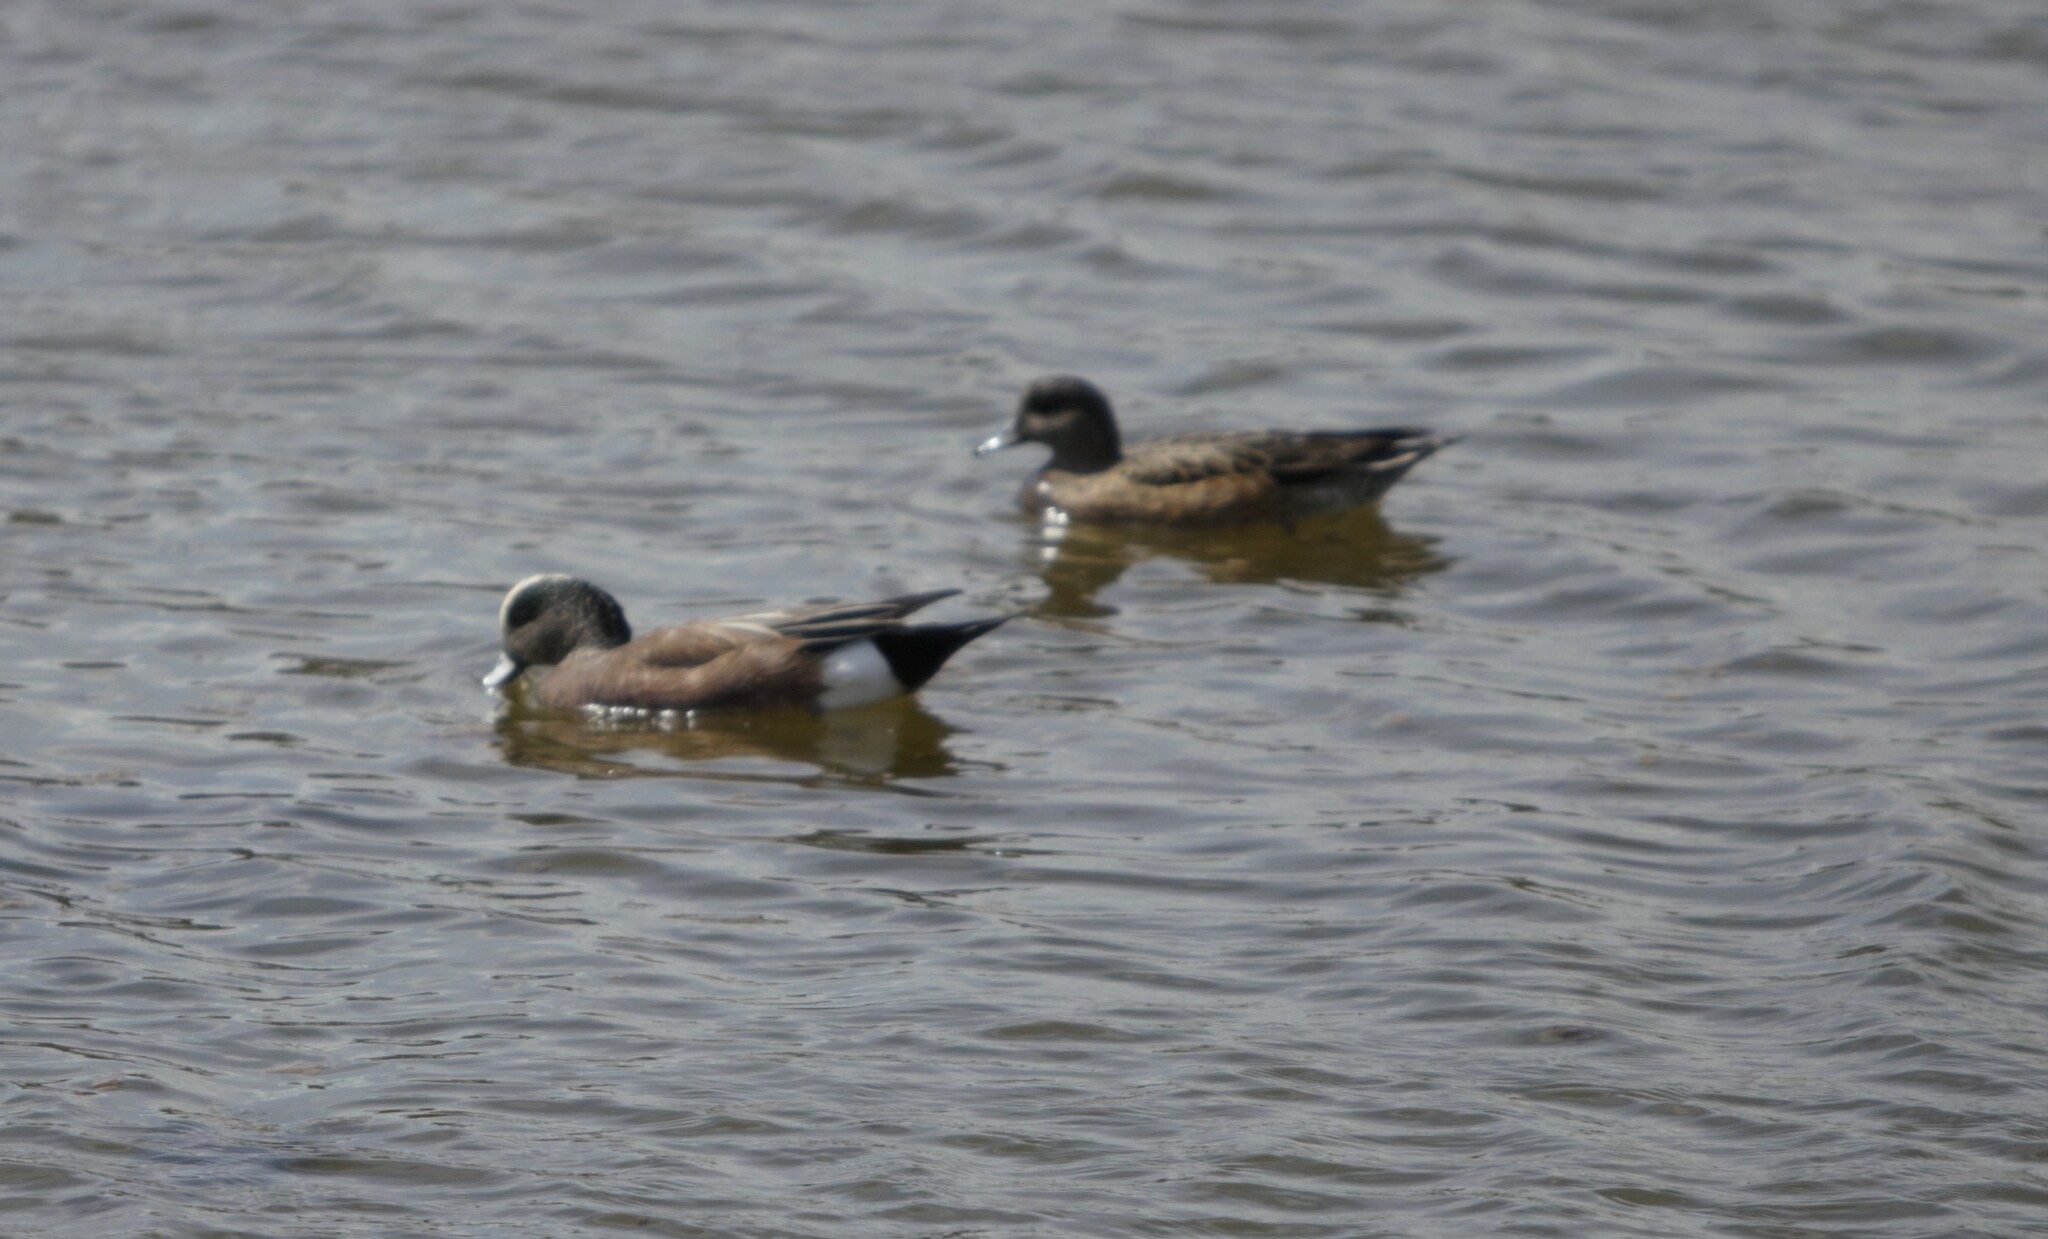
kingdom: Animalia
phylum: Chordata
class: Aves
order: Anseriformes
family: Anatidae
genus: Mareca
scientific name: Mareca americana
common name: American wigeon
